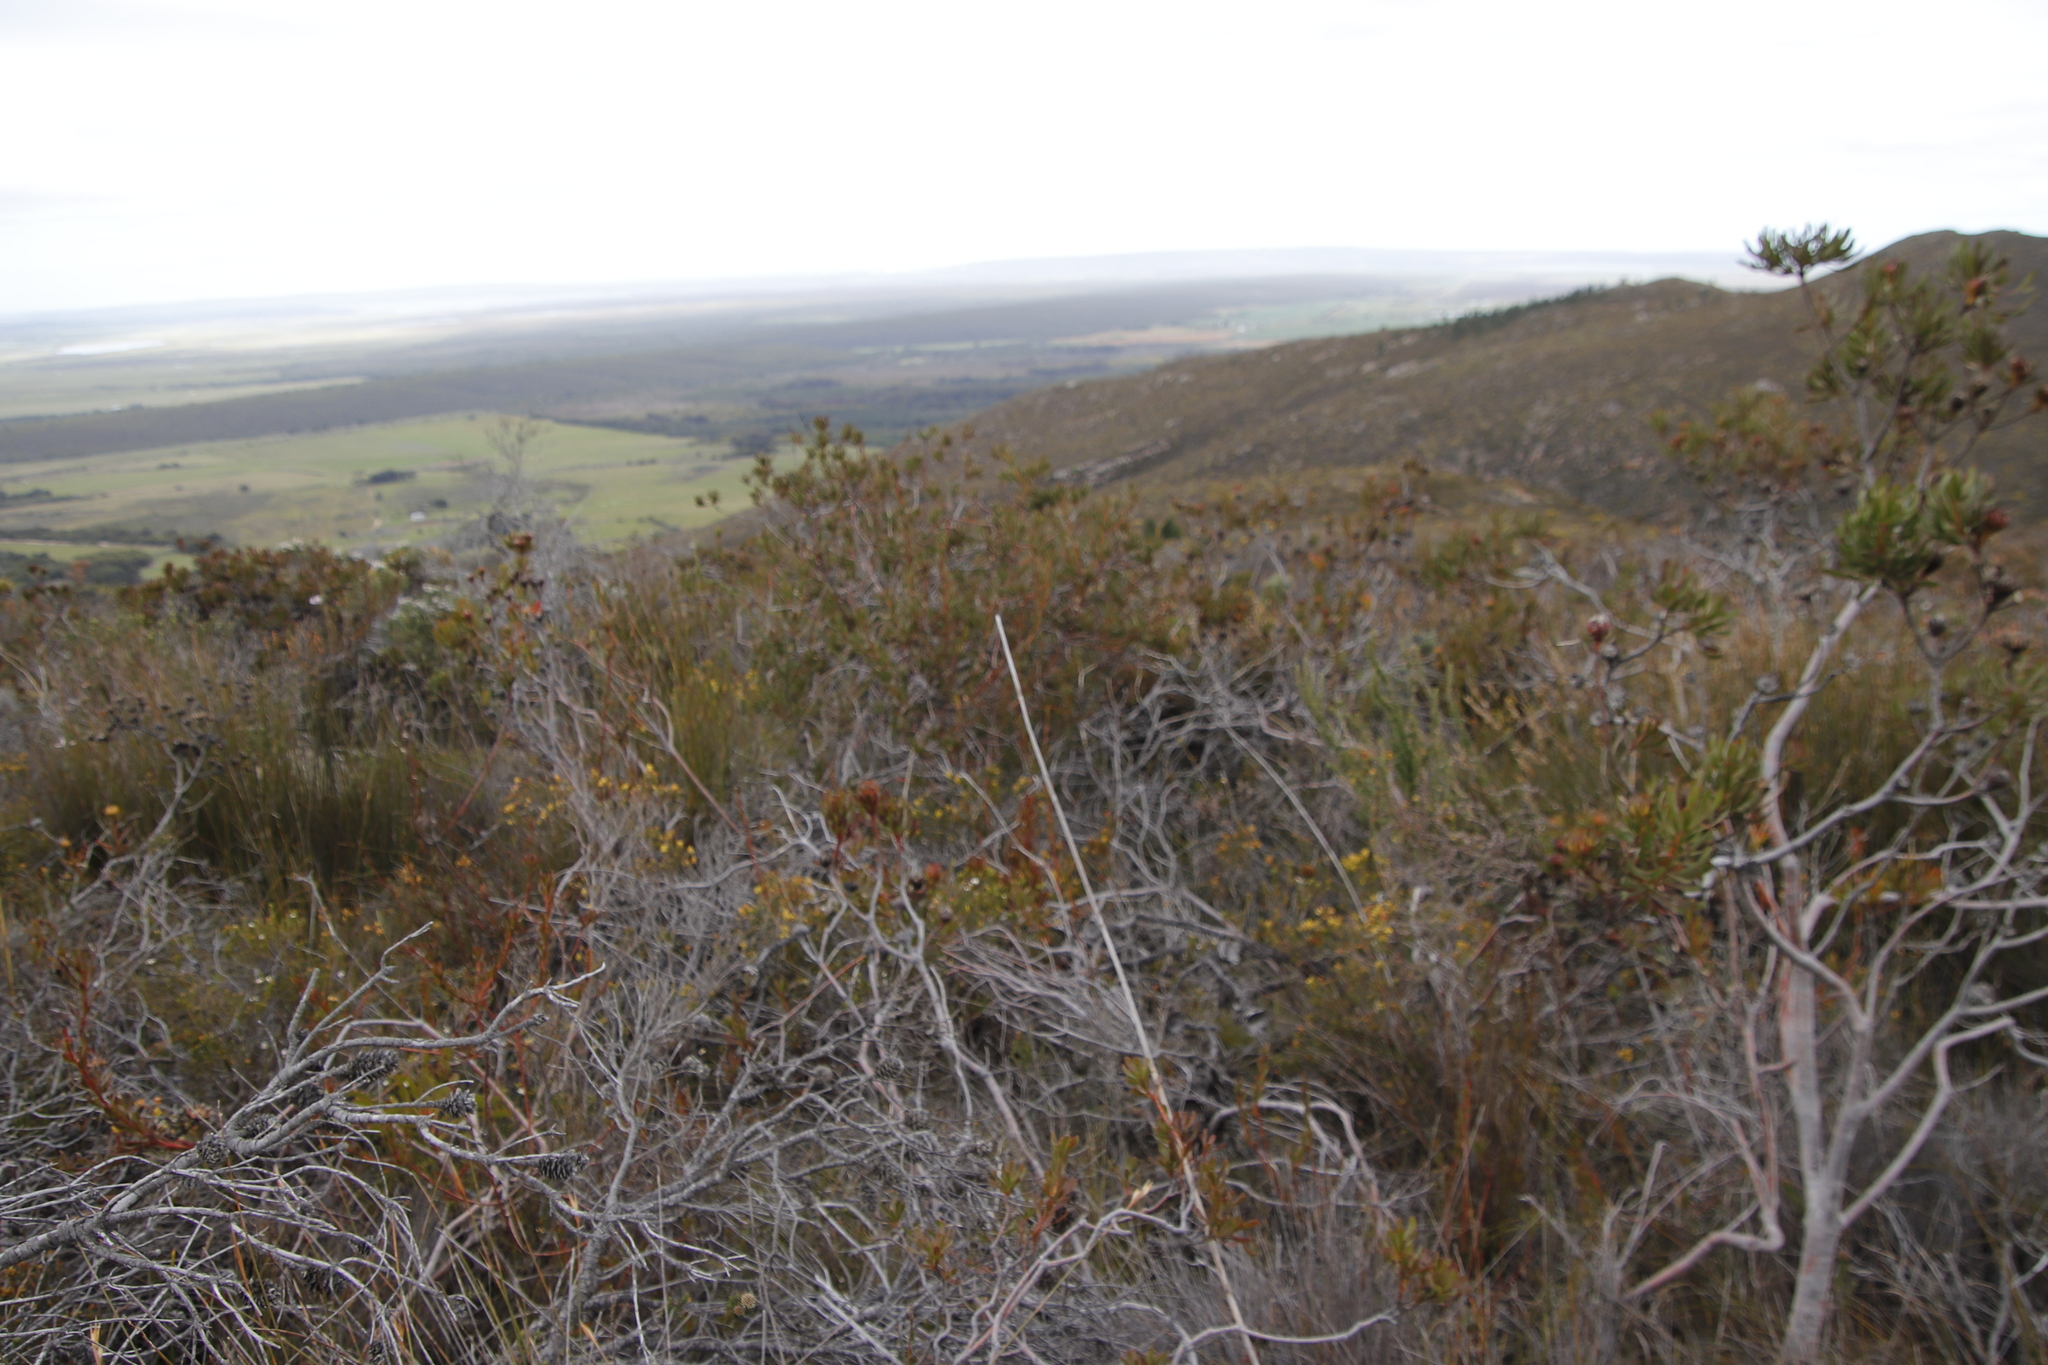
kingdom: Plantae
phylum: Tracheophyta
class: Magnoliopsida
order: Proteales
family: Proteaceae
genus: Aulax
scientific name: Aulax umbellata
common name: Broad-leaf featherbush
